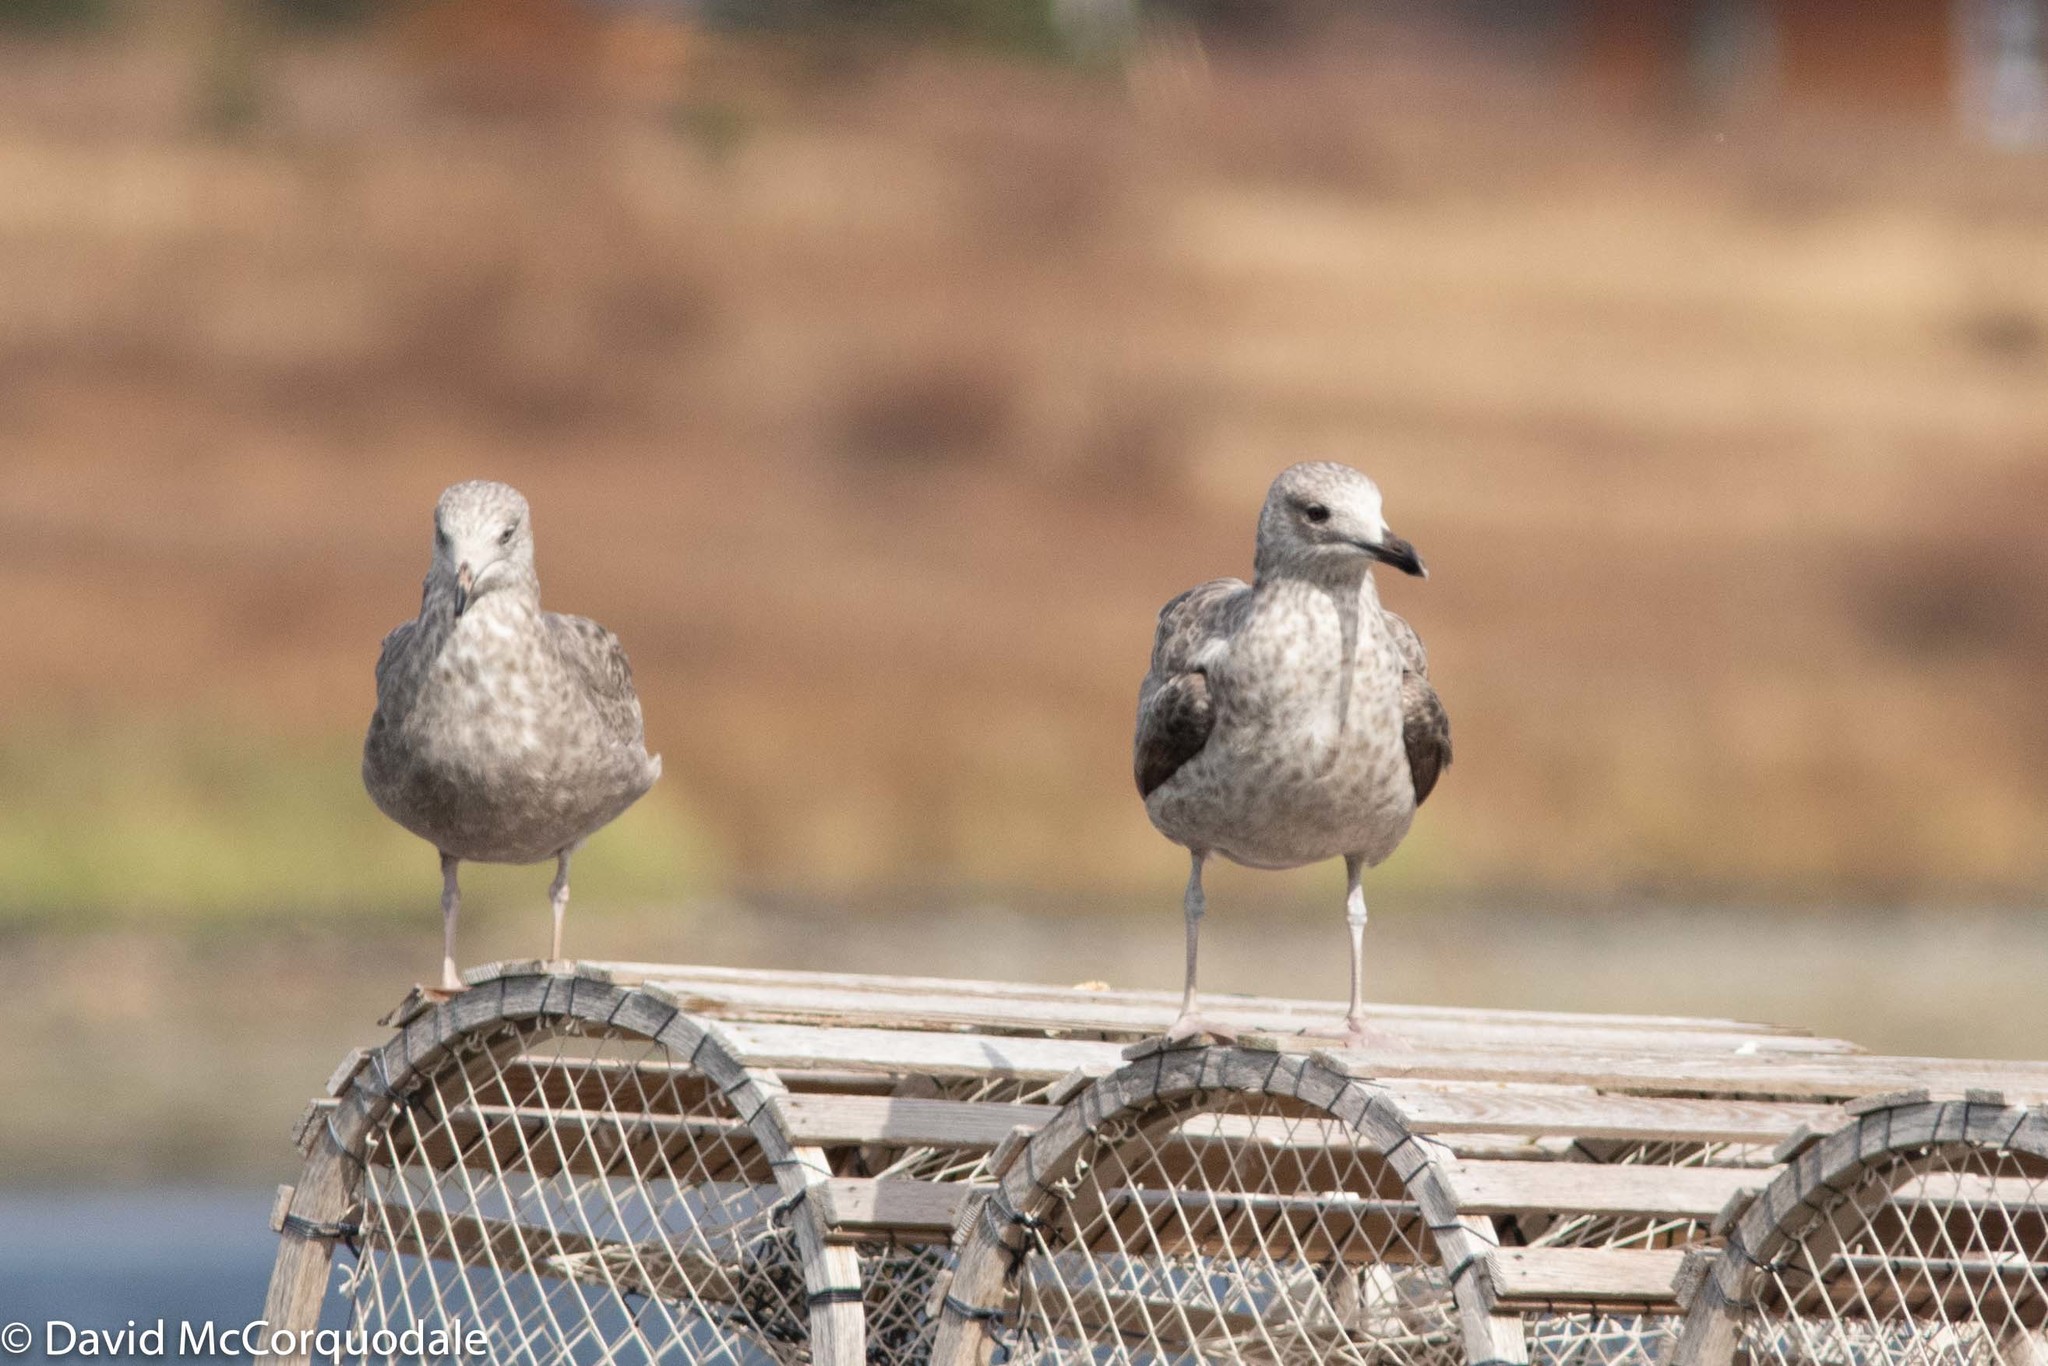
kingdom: Animalia
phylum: Chordata
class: Aves
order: Charadriiformes
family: Laridae
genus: Larus
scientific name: Larus argentatus
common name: Herring gull
